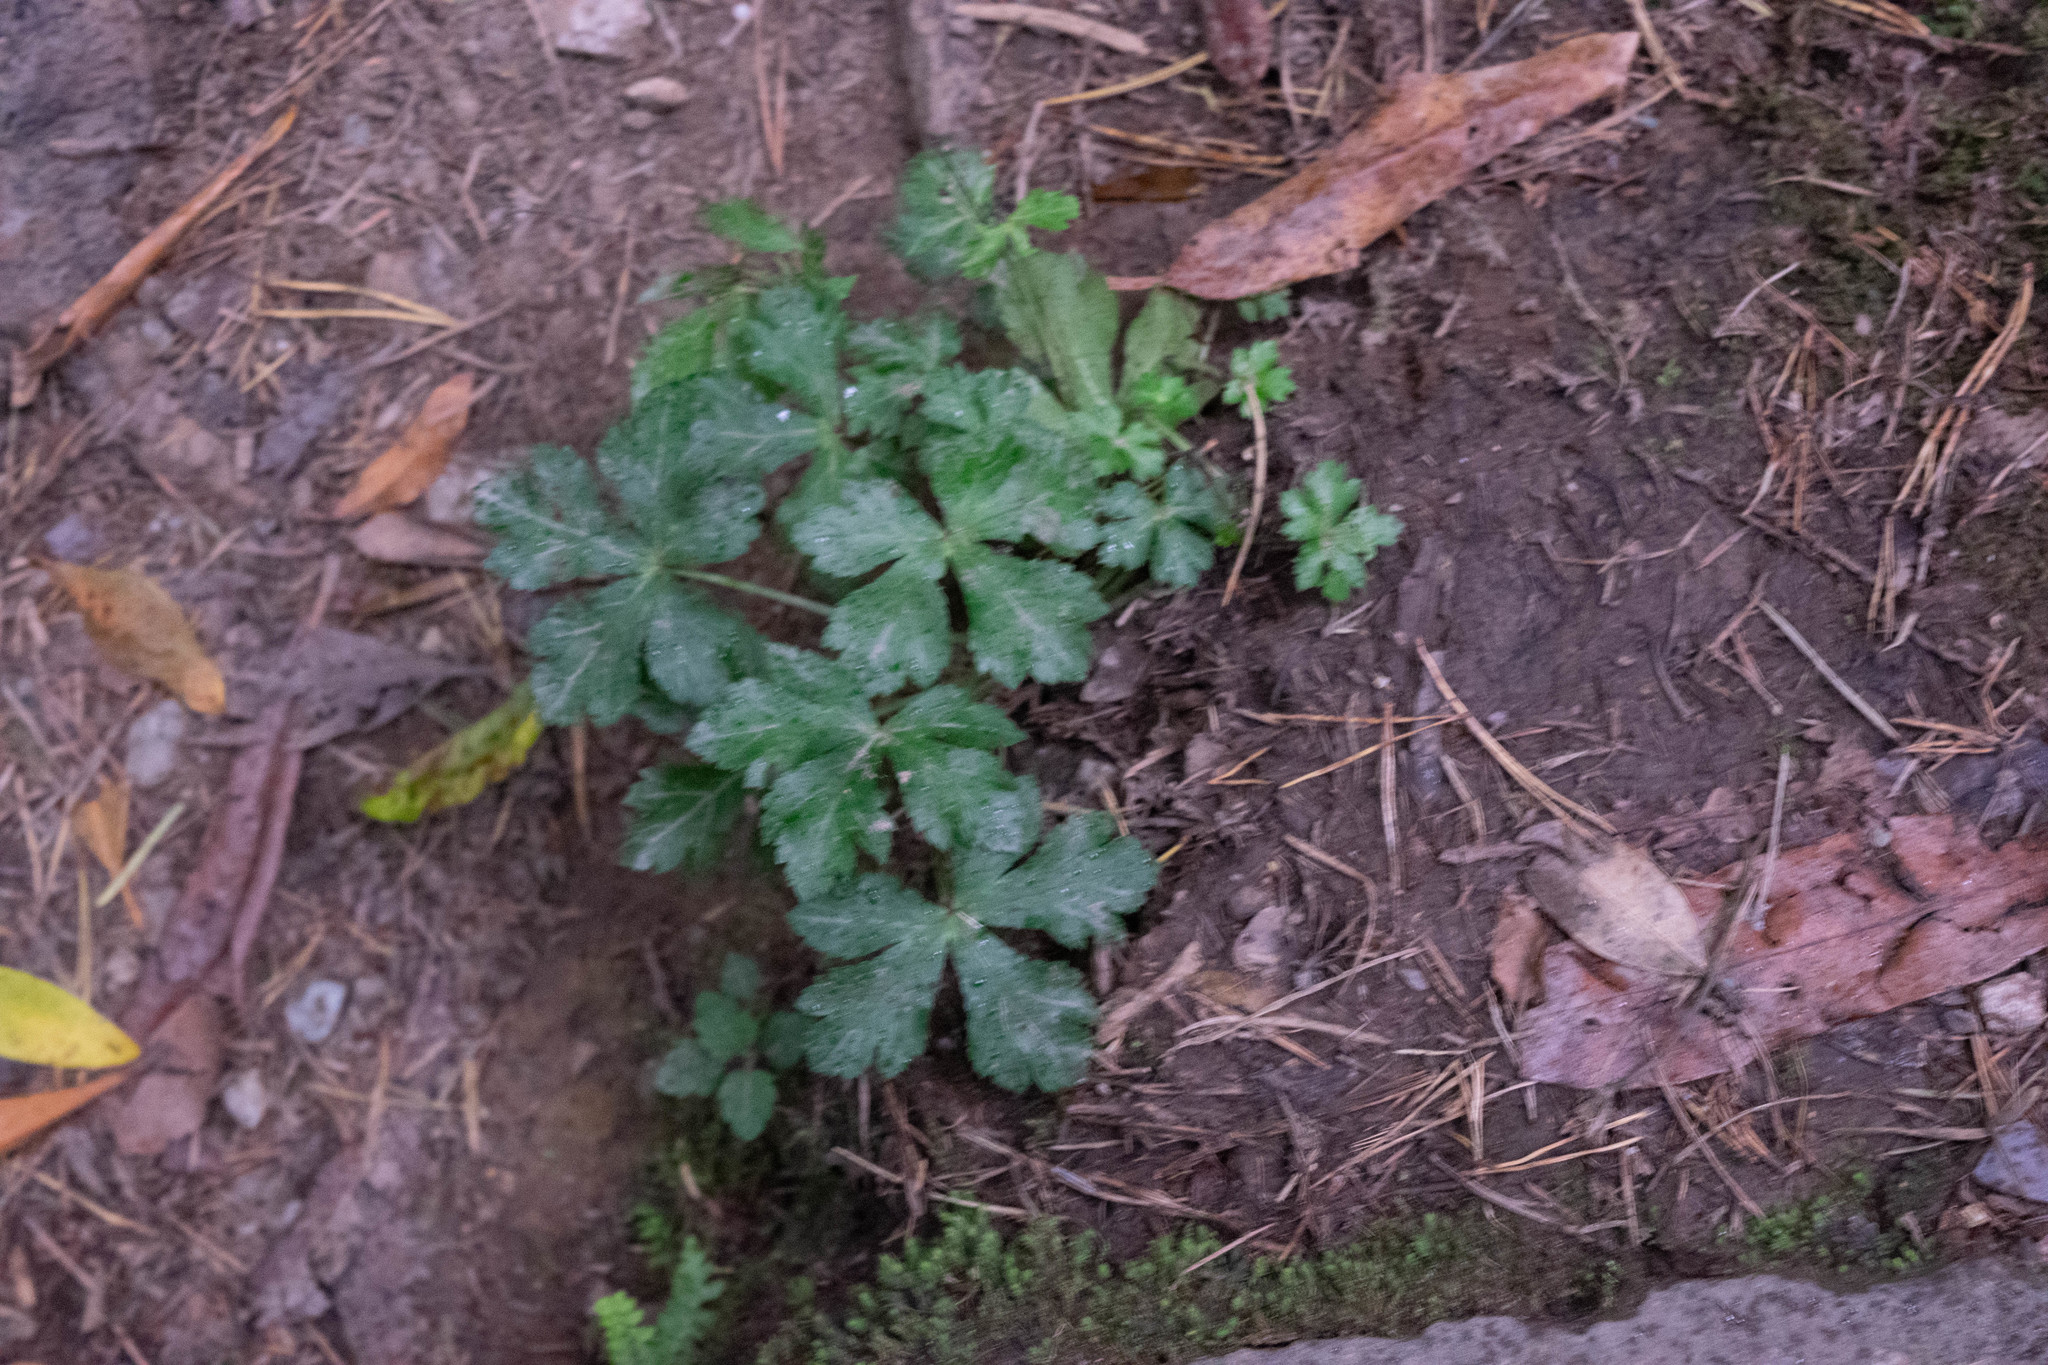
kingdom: Plantae
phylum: Tracheophyta
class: Magnoliopsida
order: Apiales
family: Apiaceae
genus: Sanicula
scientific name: Sanicula europaea
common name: Sanicle
